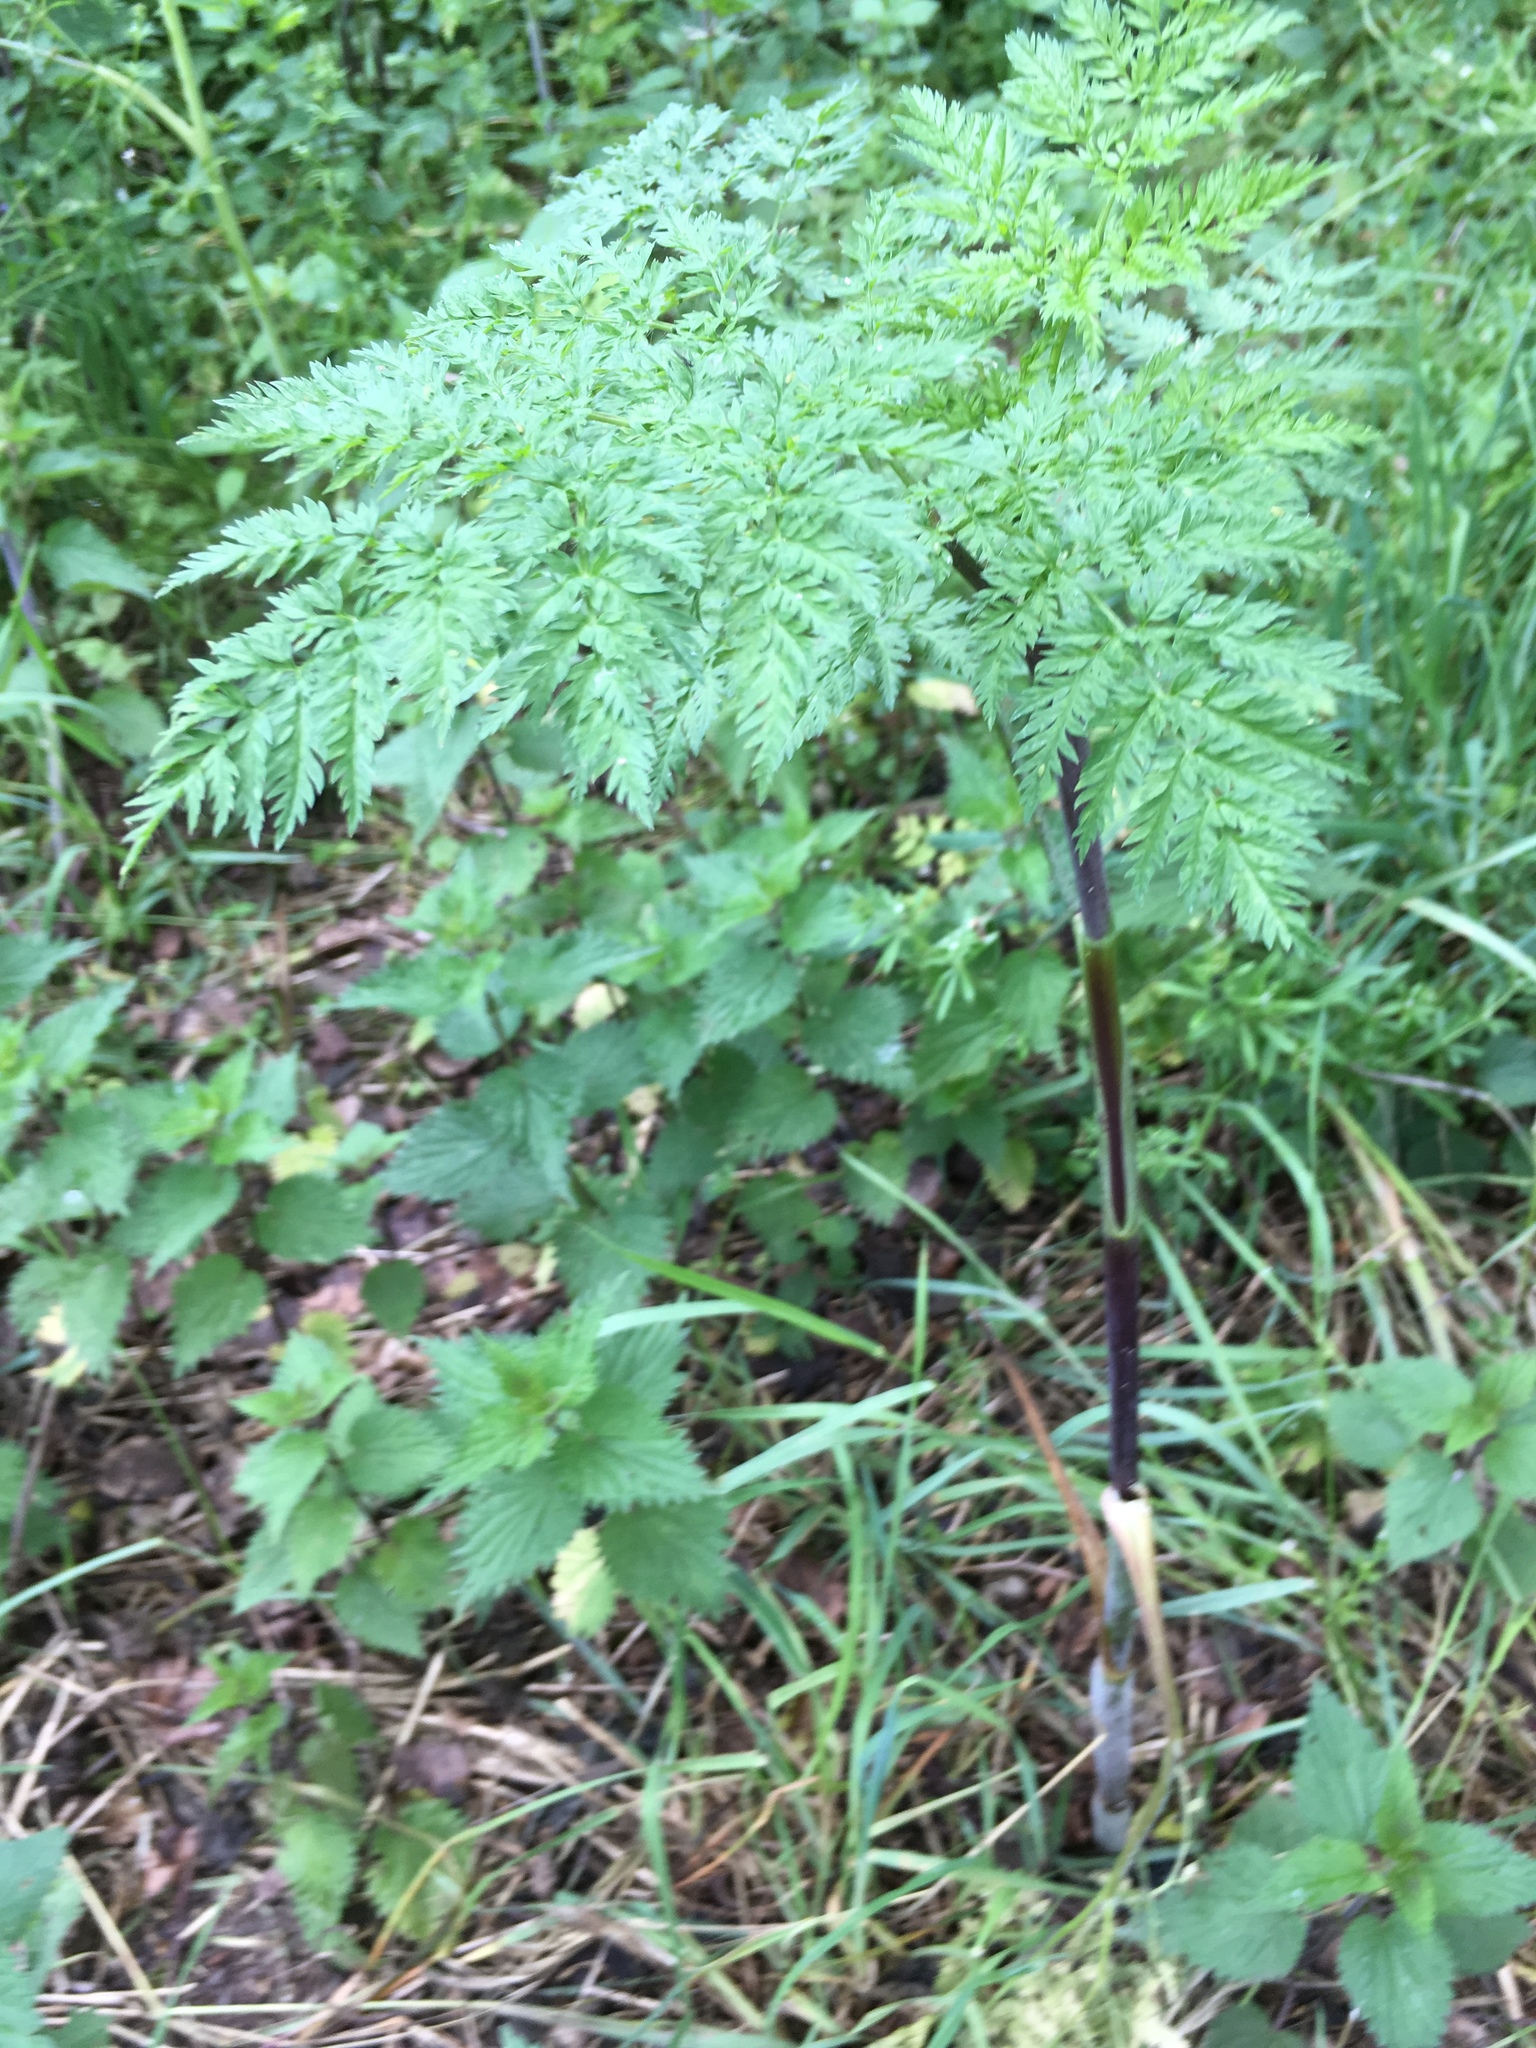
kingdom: Plantae
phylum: Tracheophyta
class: Magnoliopsida
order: Apiales
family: Apiaceae
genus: Chaerophyllum
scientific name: Chaerophyllum bulbosum
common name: Bulbous chervil
